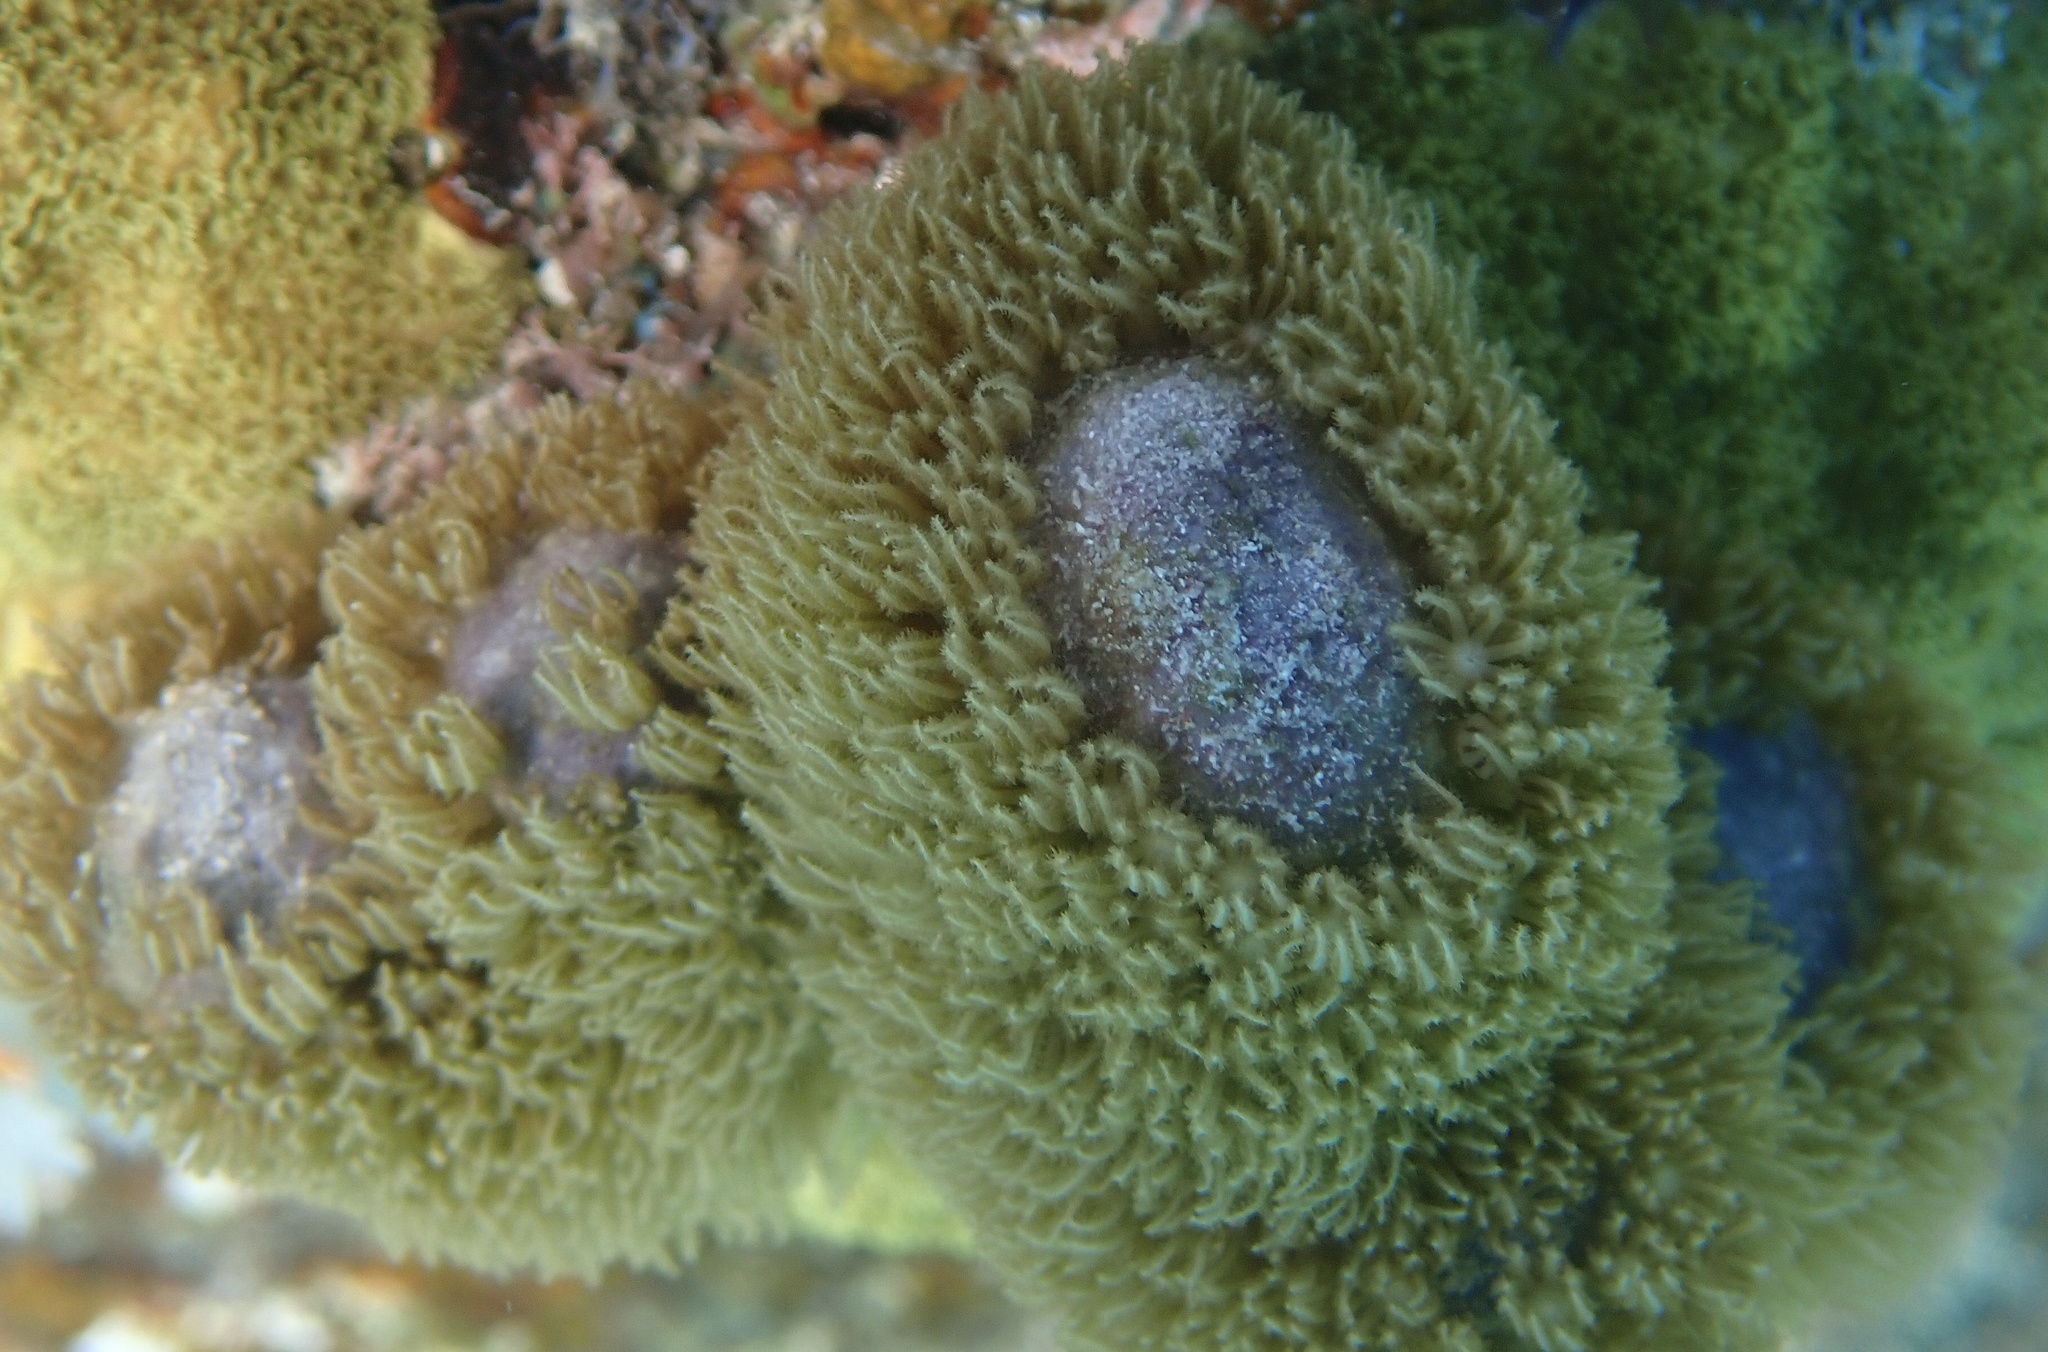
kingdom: Animalia
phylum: Cnidaria
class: Anthozoa
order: Scleralcyonacea
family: Briareidae
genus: Briareum
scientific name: Briareum asbestinum
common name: Corky sea finger
